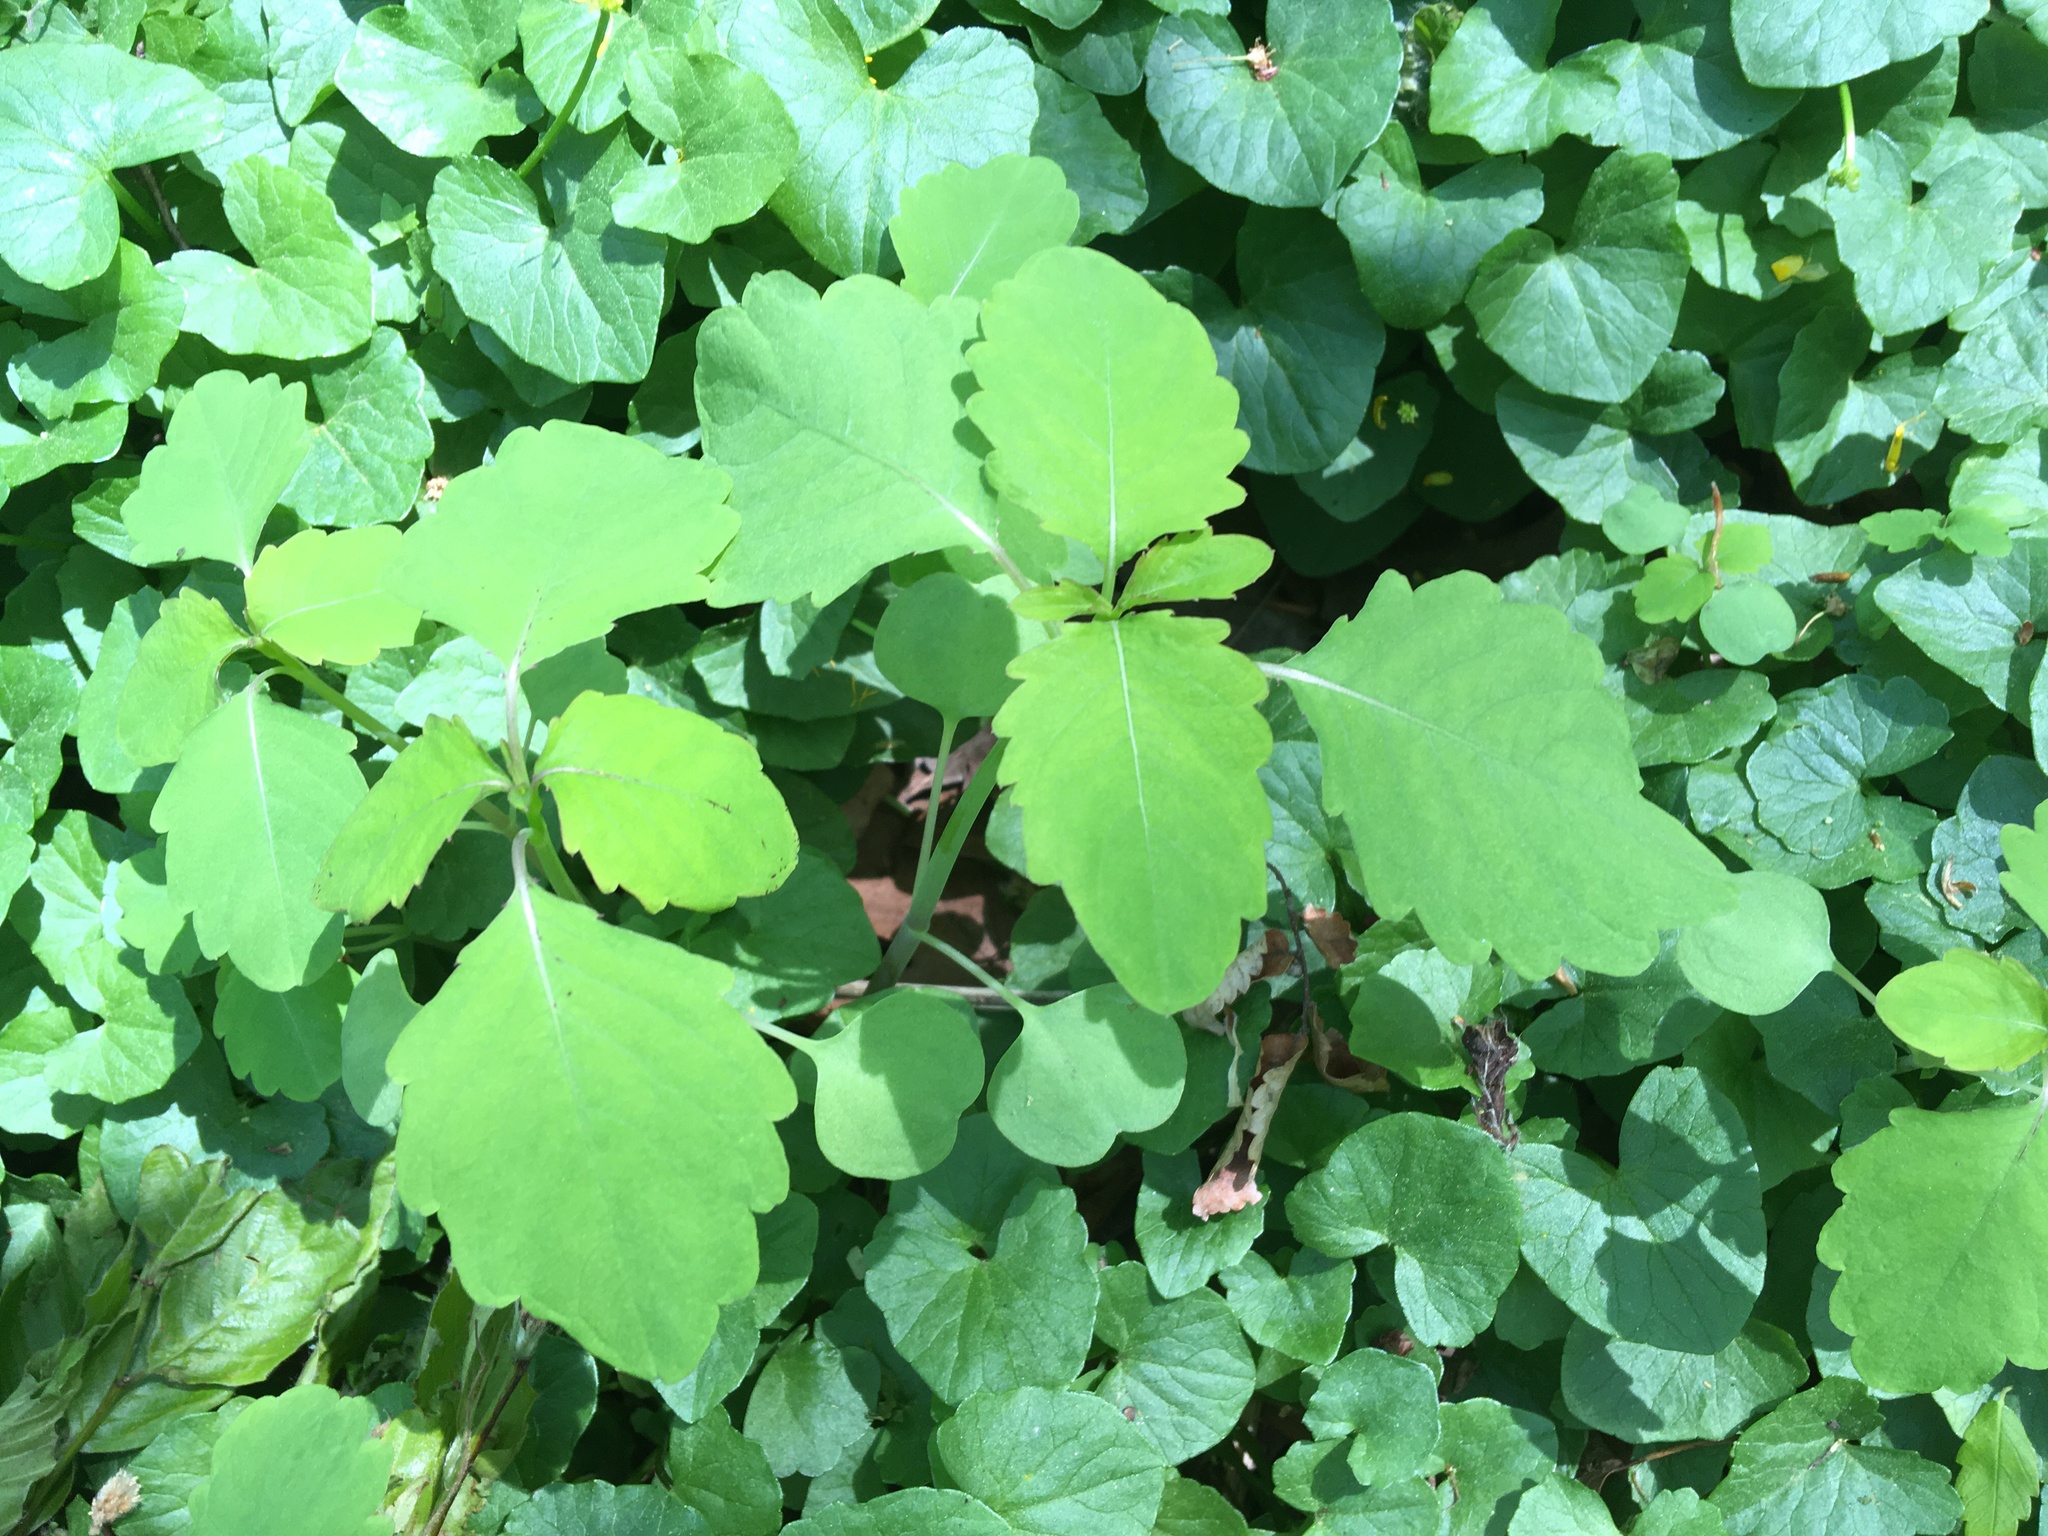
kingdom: Plantae
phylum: Tracheophyta
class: Magnoliopsida
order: Ericales
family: Balsaminaceae
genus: Impatiens
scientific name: Impatiens
